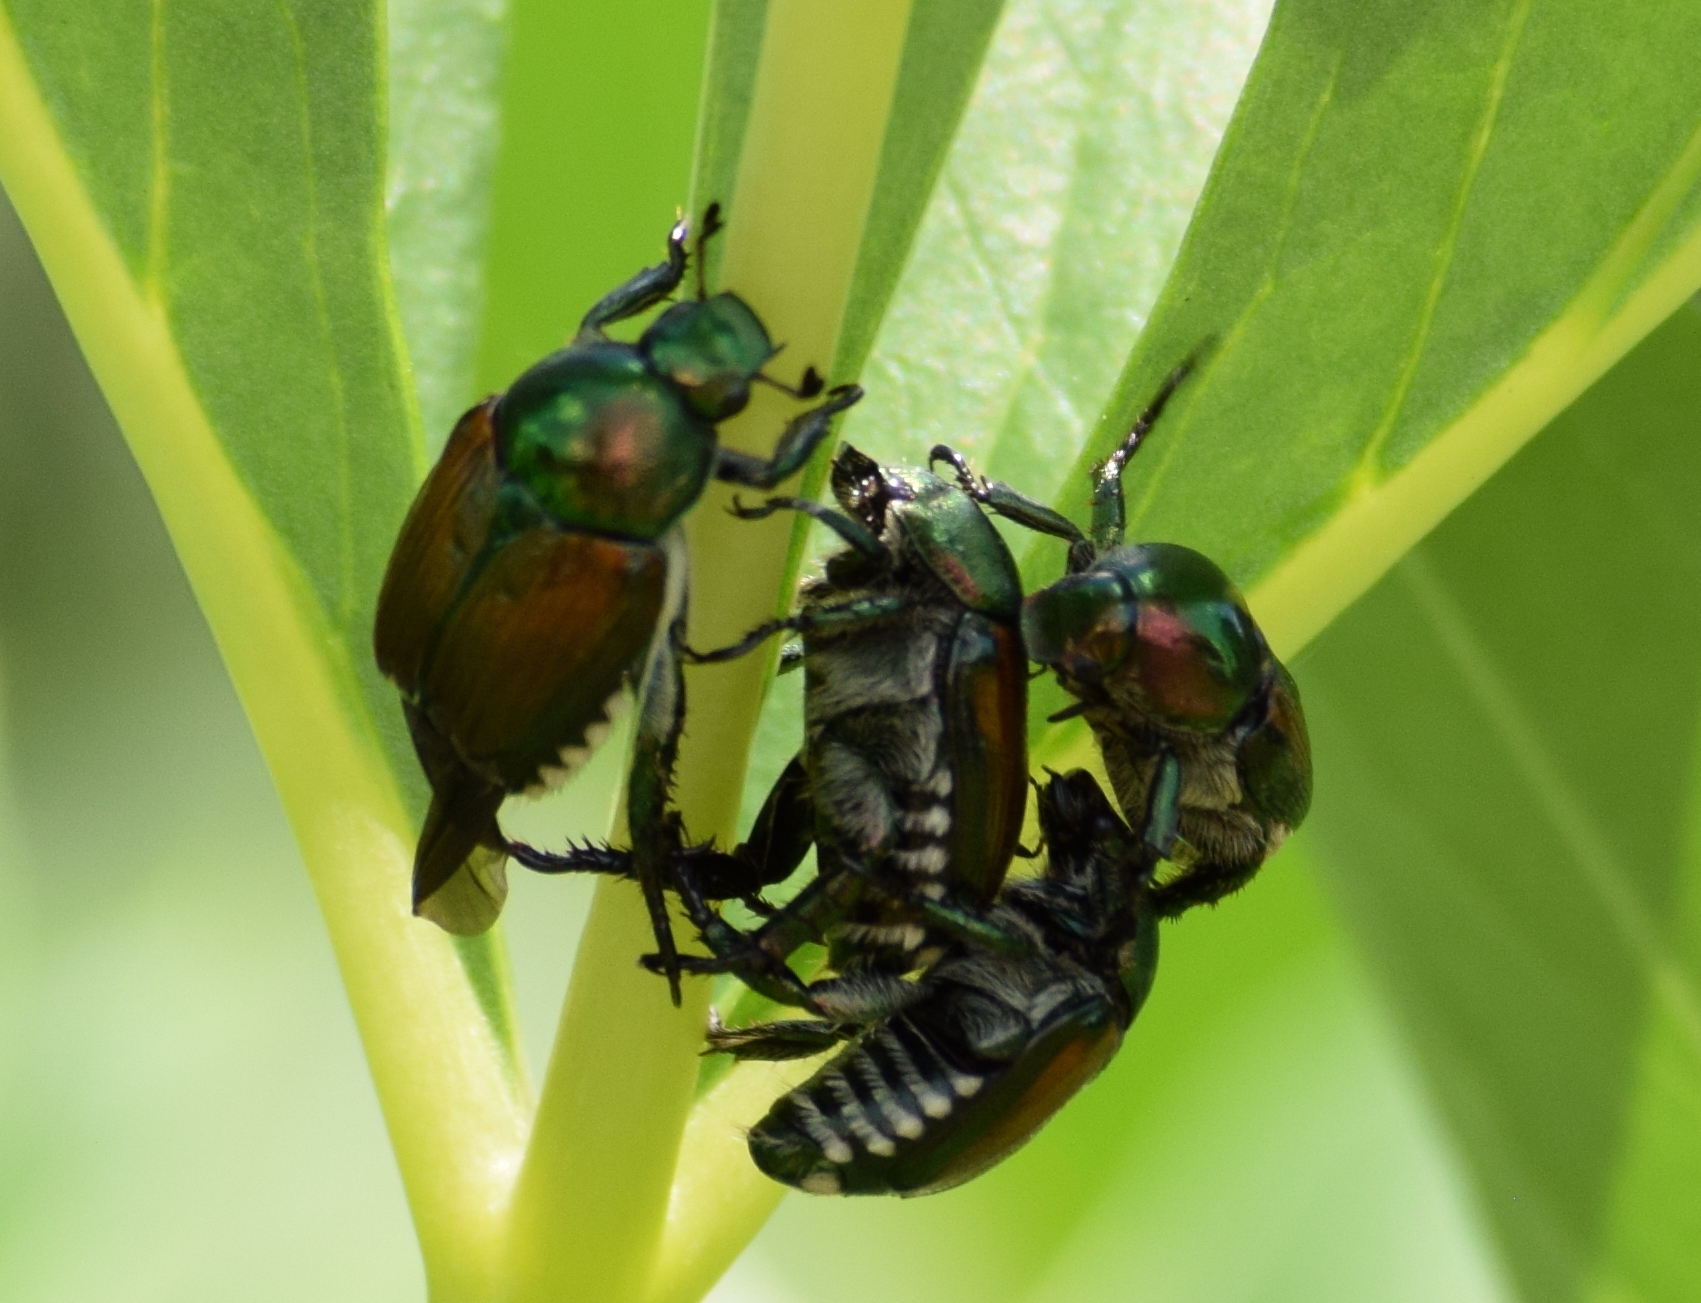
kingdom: Animalia
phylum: Arthropoda
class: Insecta
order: Coleoptera
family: Scarabaeidae
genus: Popillia
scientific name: Popillia japonica
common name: Japanese beetle
